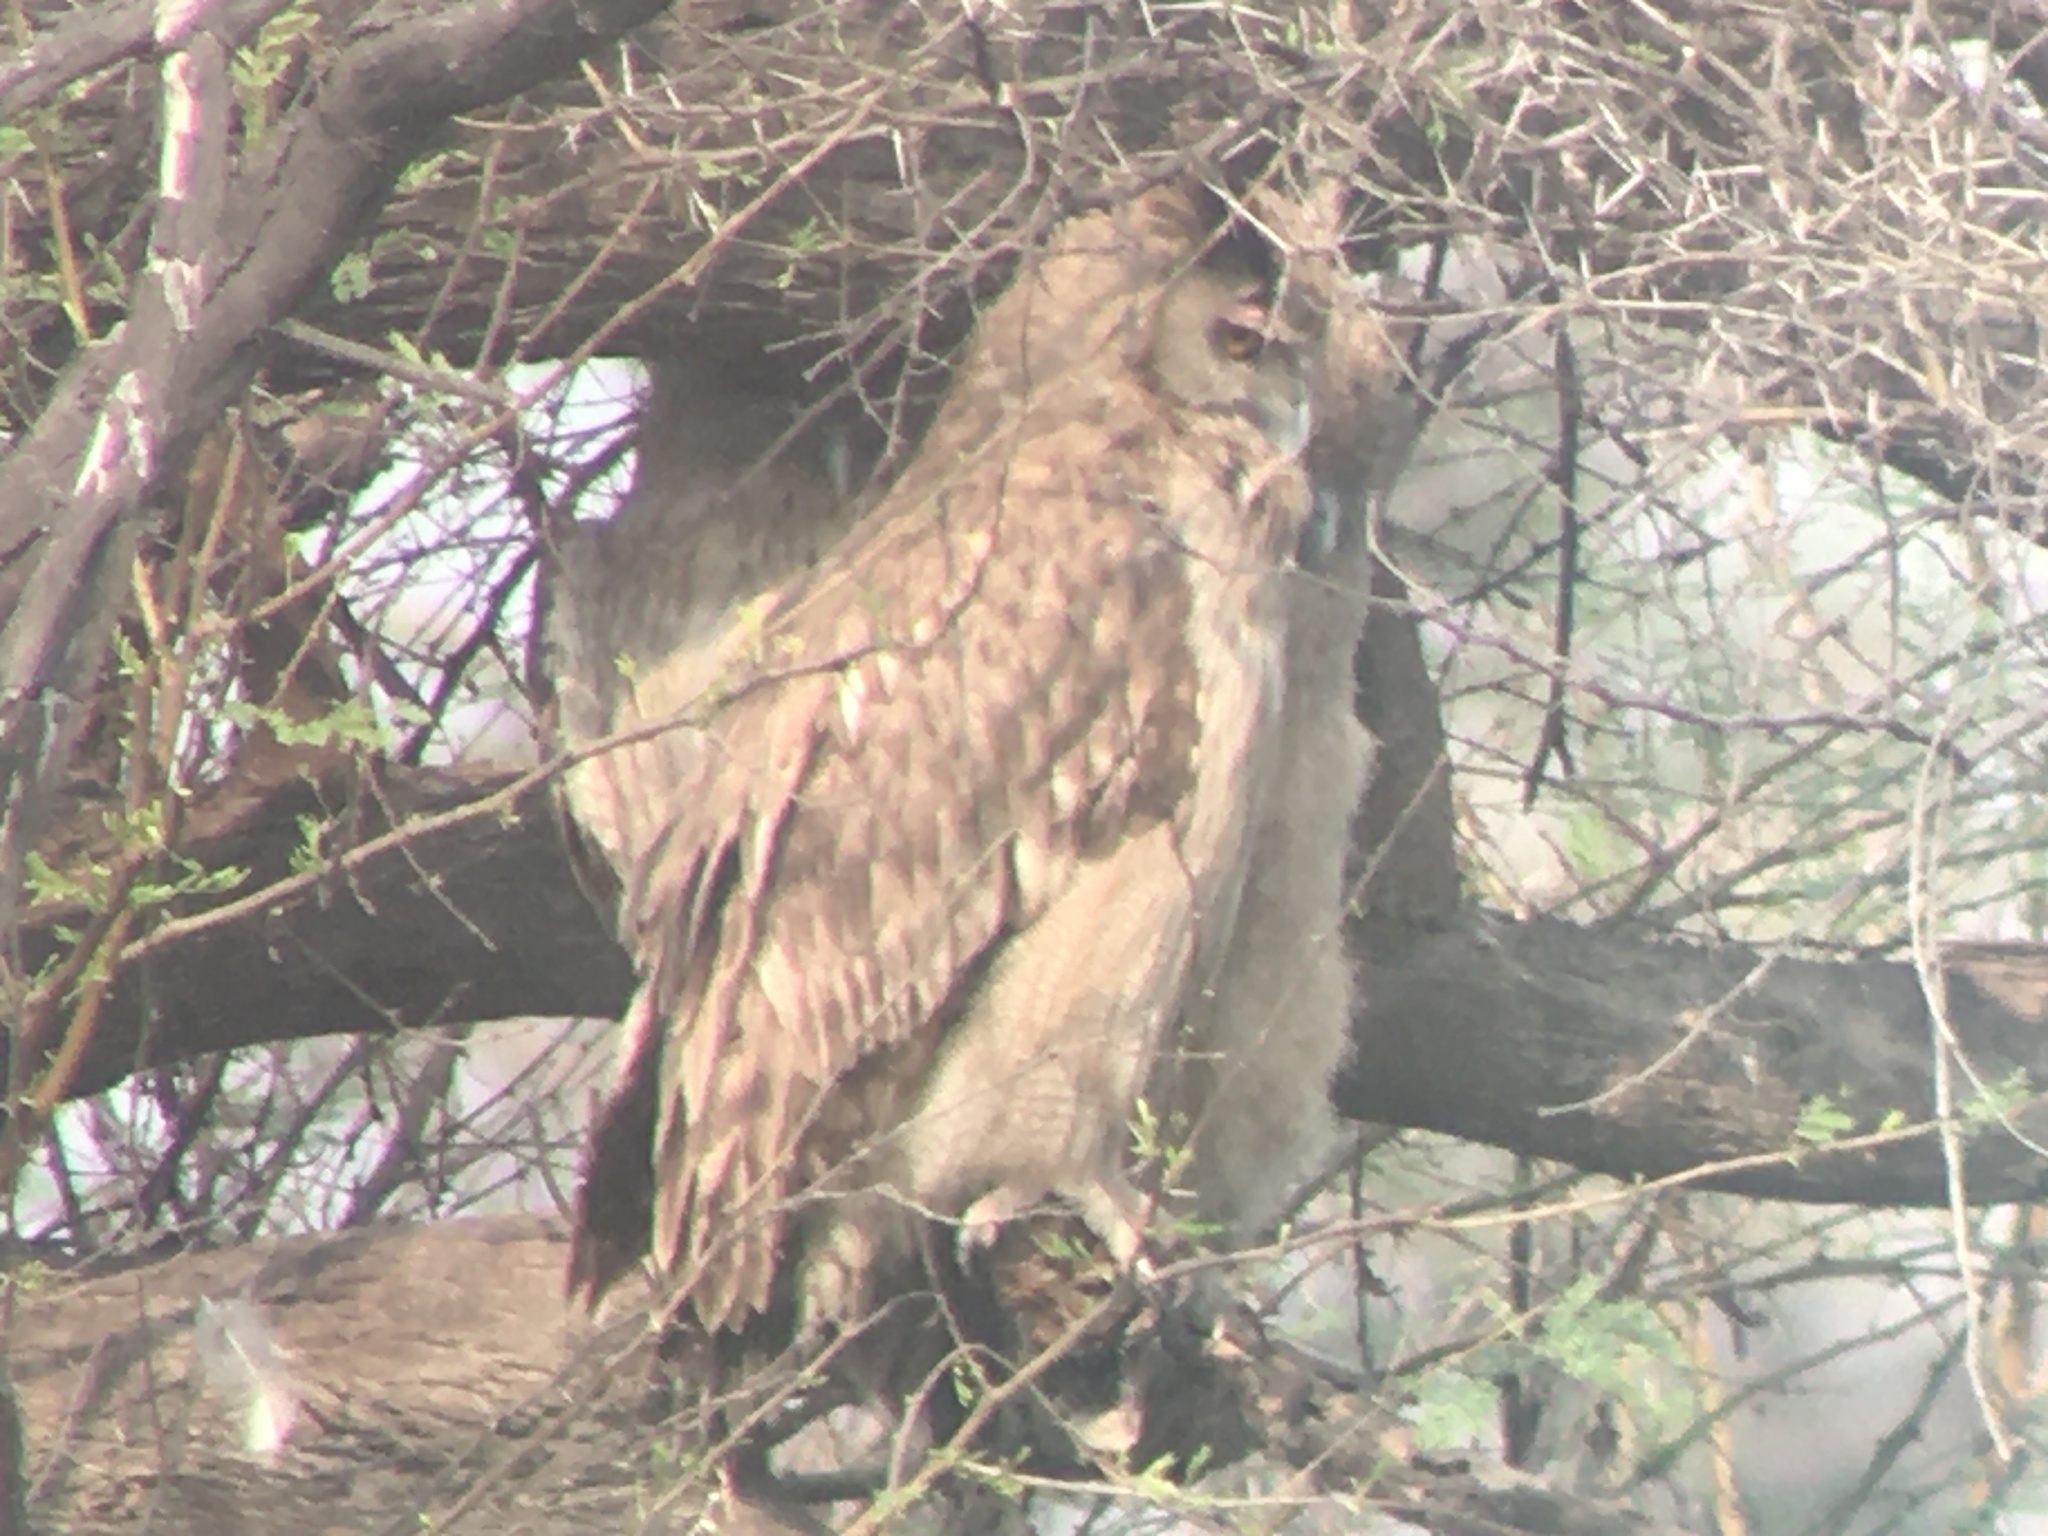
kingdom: Animalia
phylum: Chordata
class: Aves
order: Strigiformes
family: Strigidae
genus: Ketupa
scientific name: Ketupa coromanda
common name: Dusky eagle-owl
